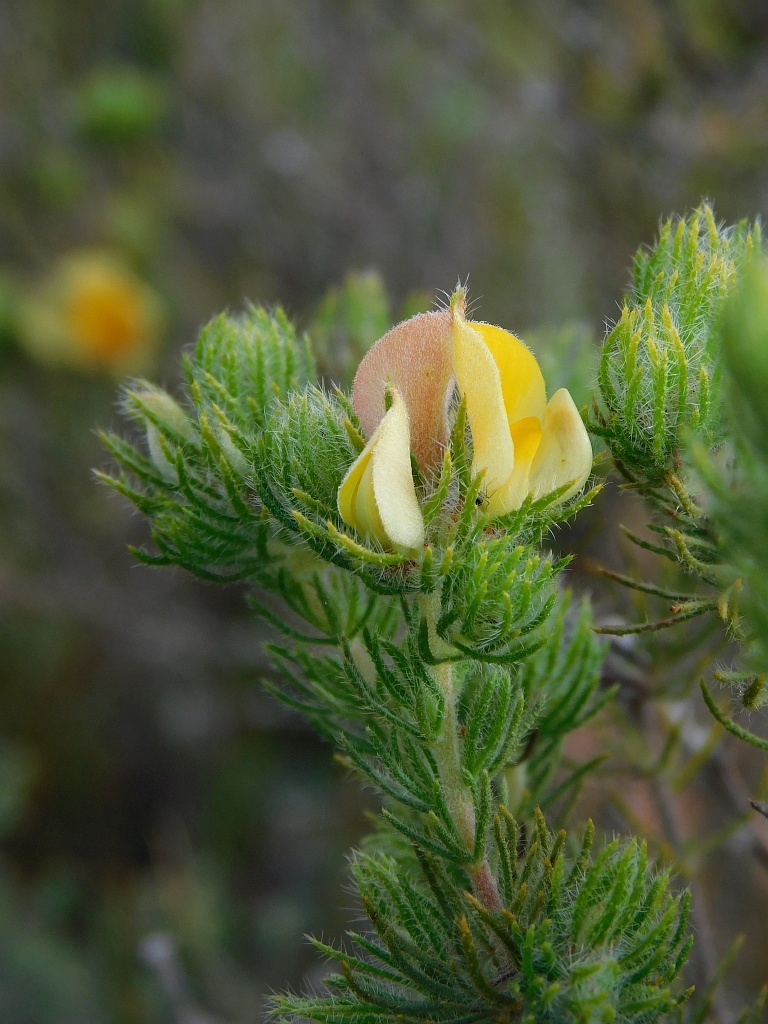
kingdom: Plantae
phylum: Tracheophyta
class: Magnoliopsida
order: Fabales
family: Fabaceae
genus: Aspalathus
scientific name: Aspalathus ciliaris
